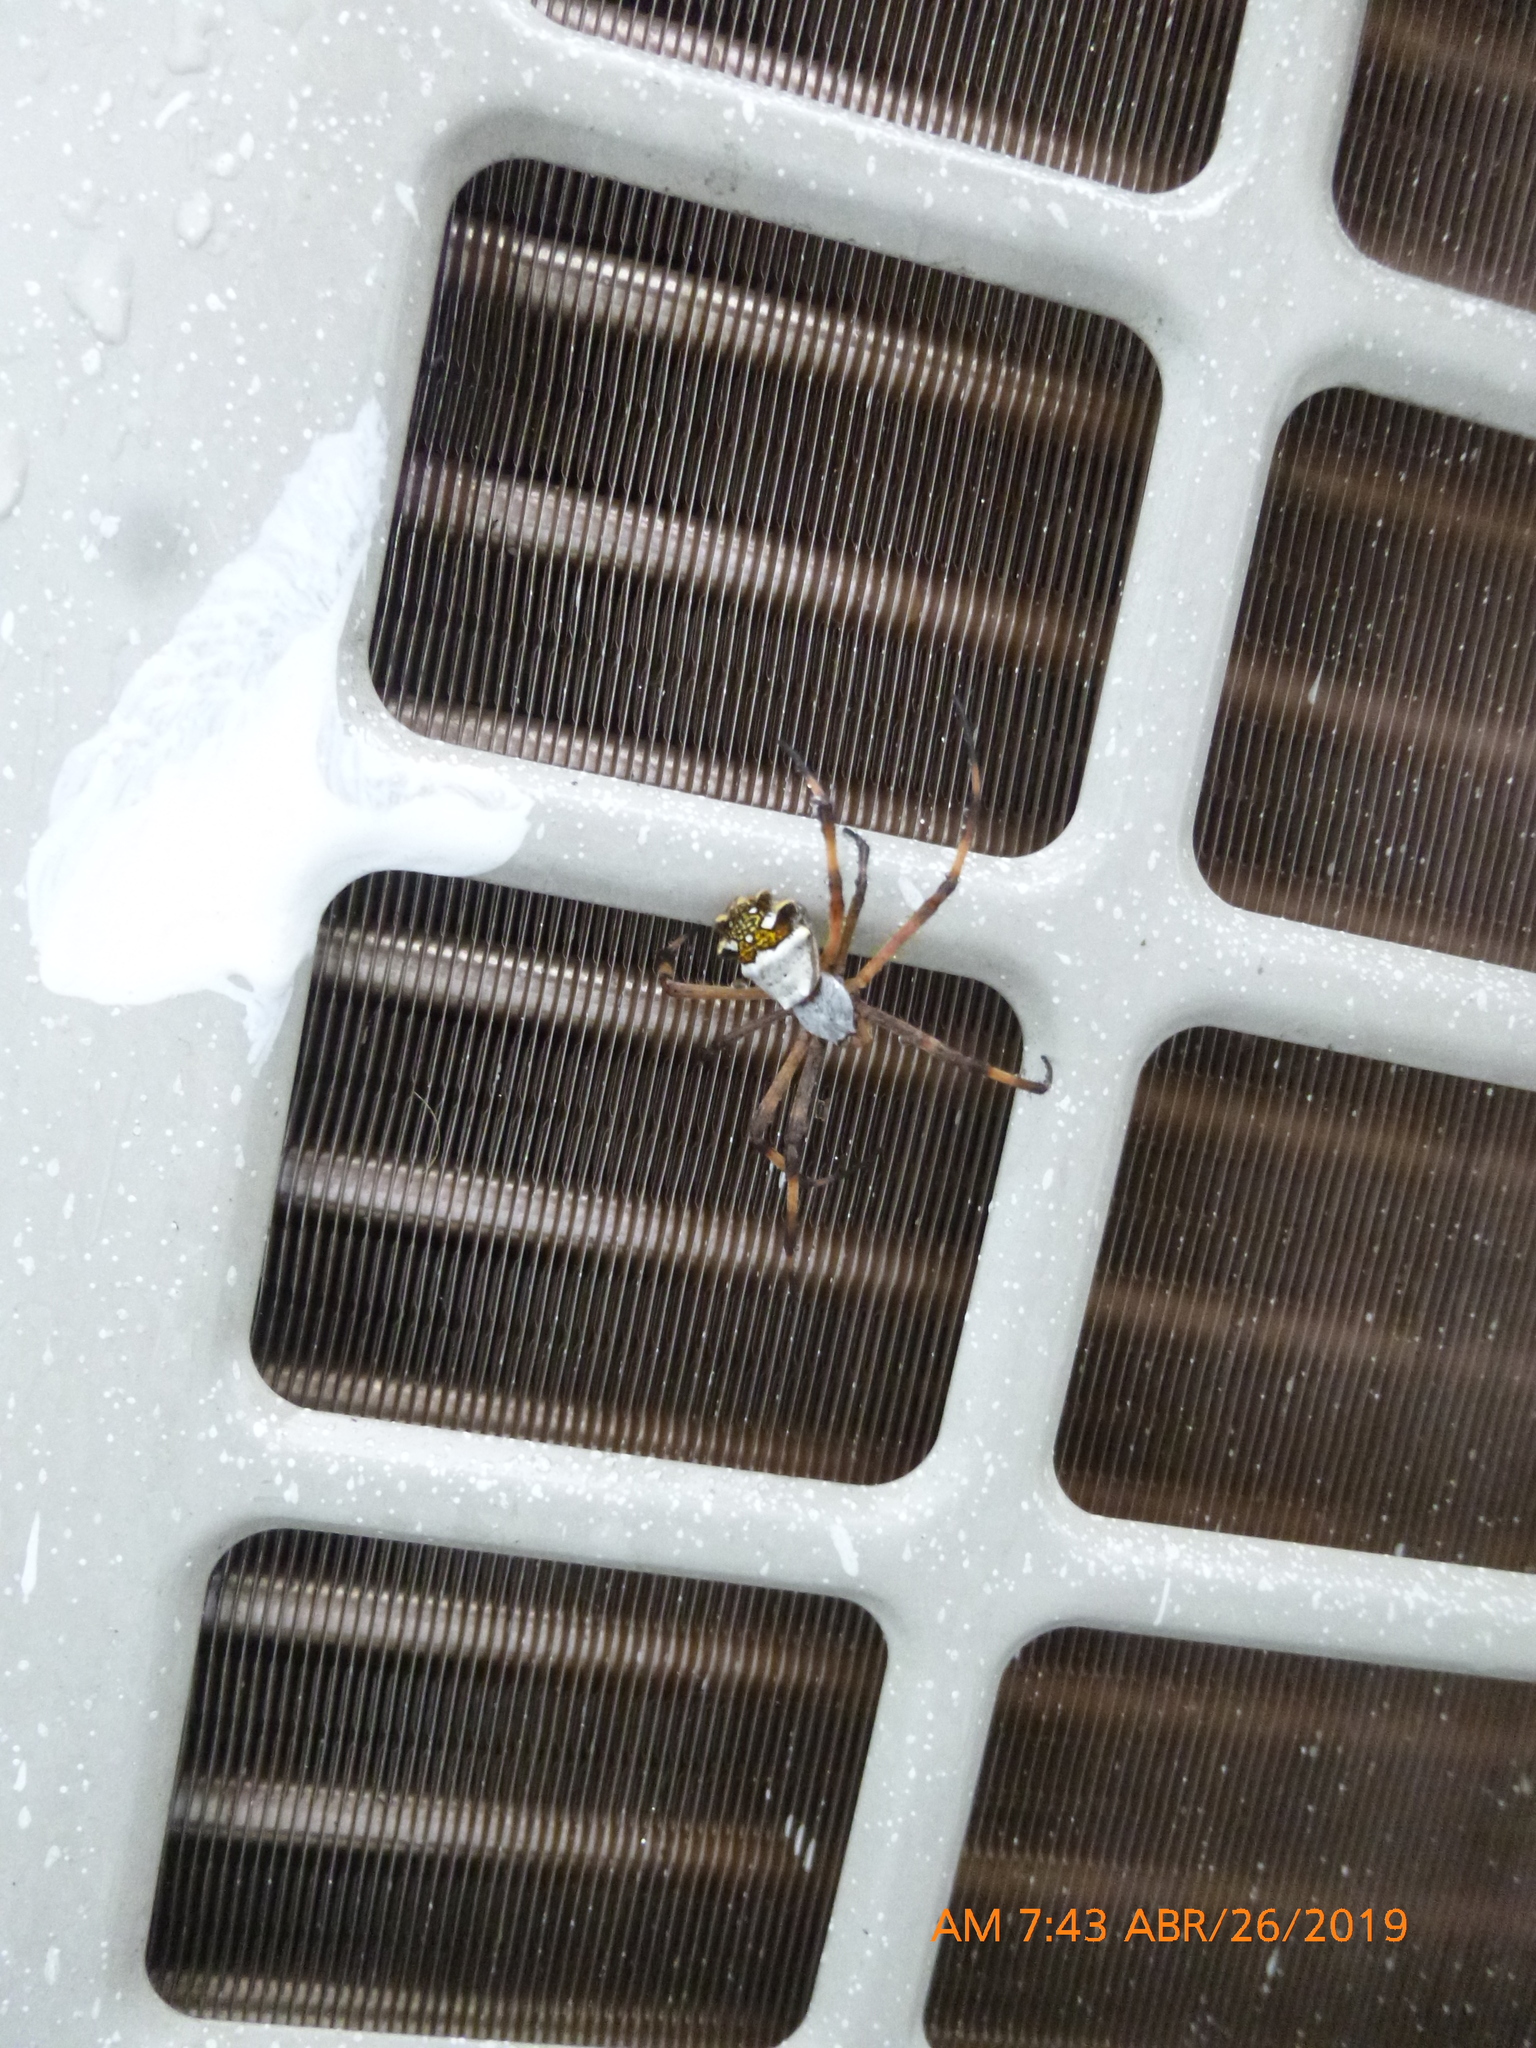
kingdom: Animalia
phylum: Arthropoda
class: Arachnida
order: Araneae
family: Araneidae
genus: Argiope
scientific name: Argiope argentata
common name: Orb weavers
